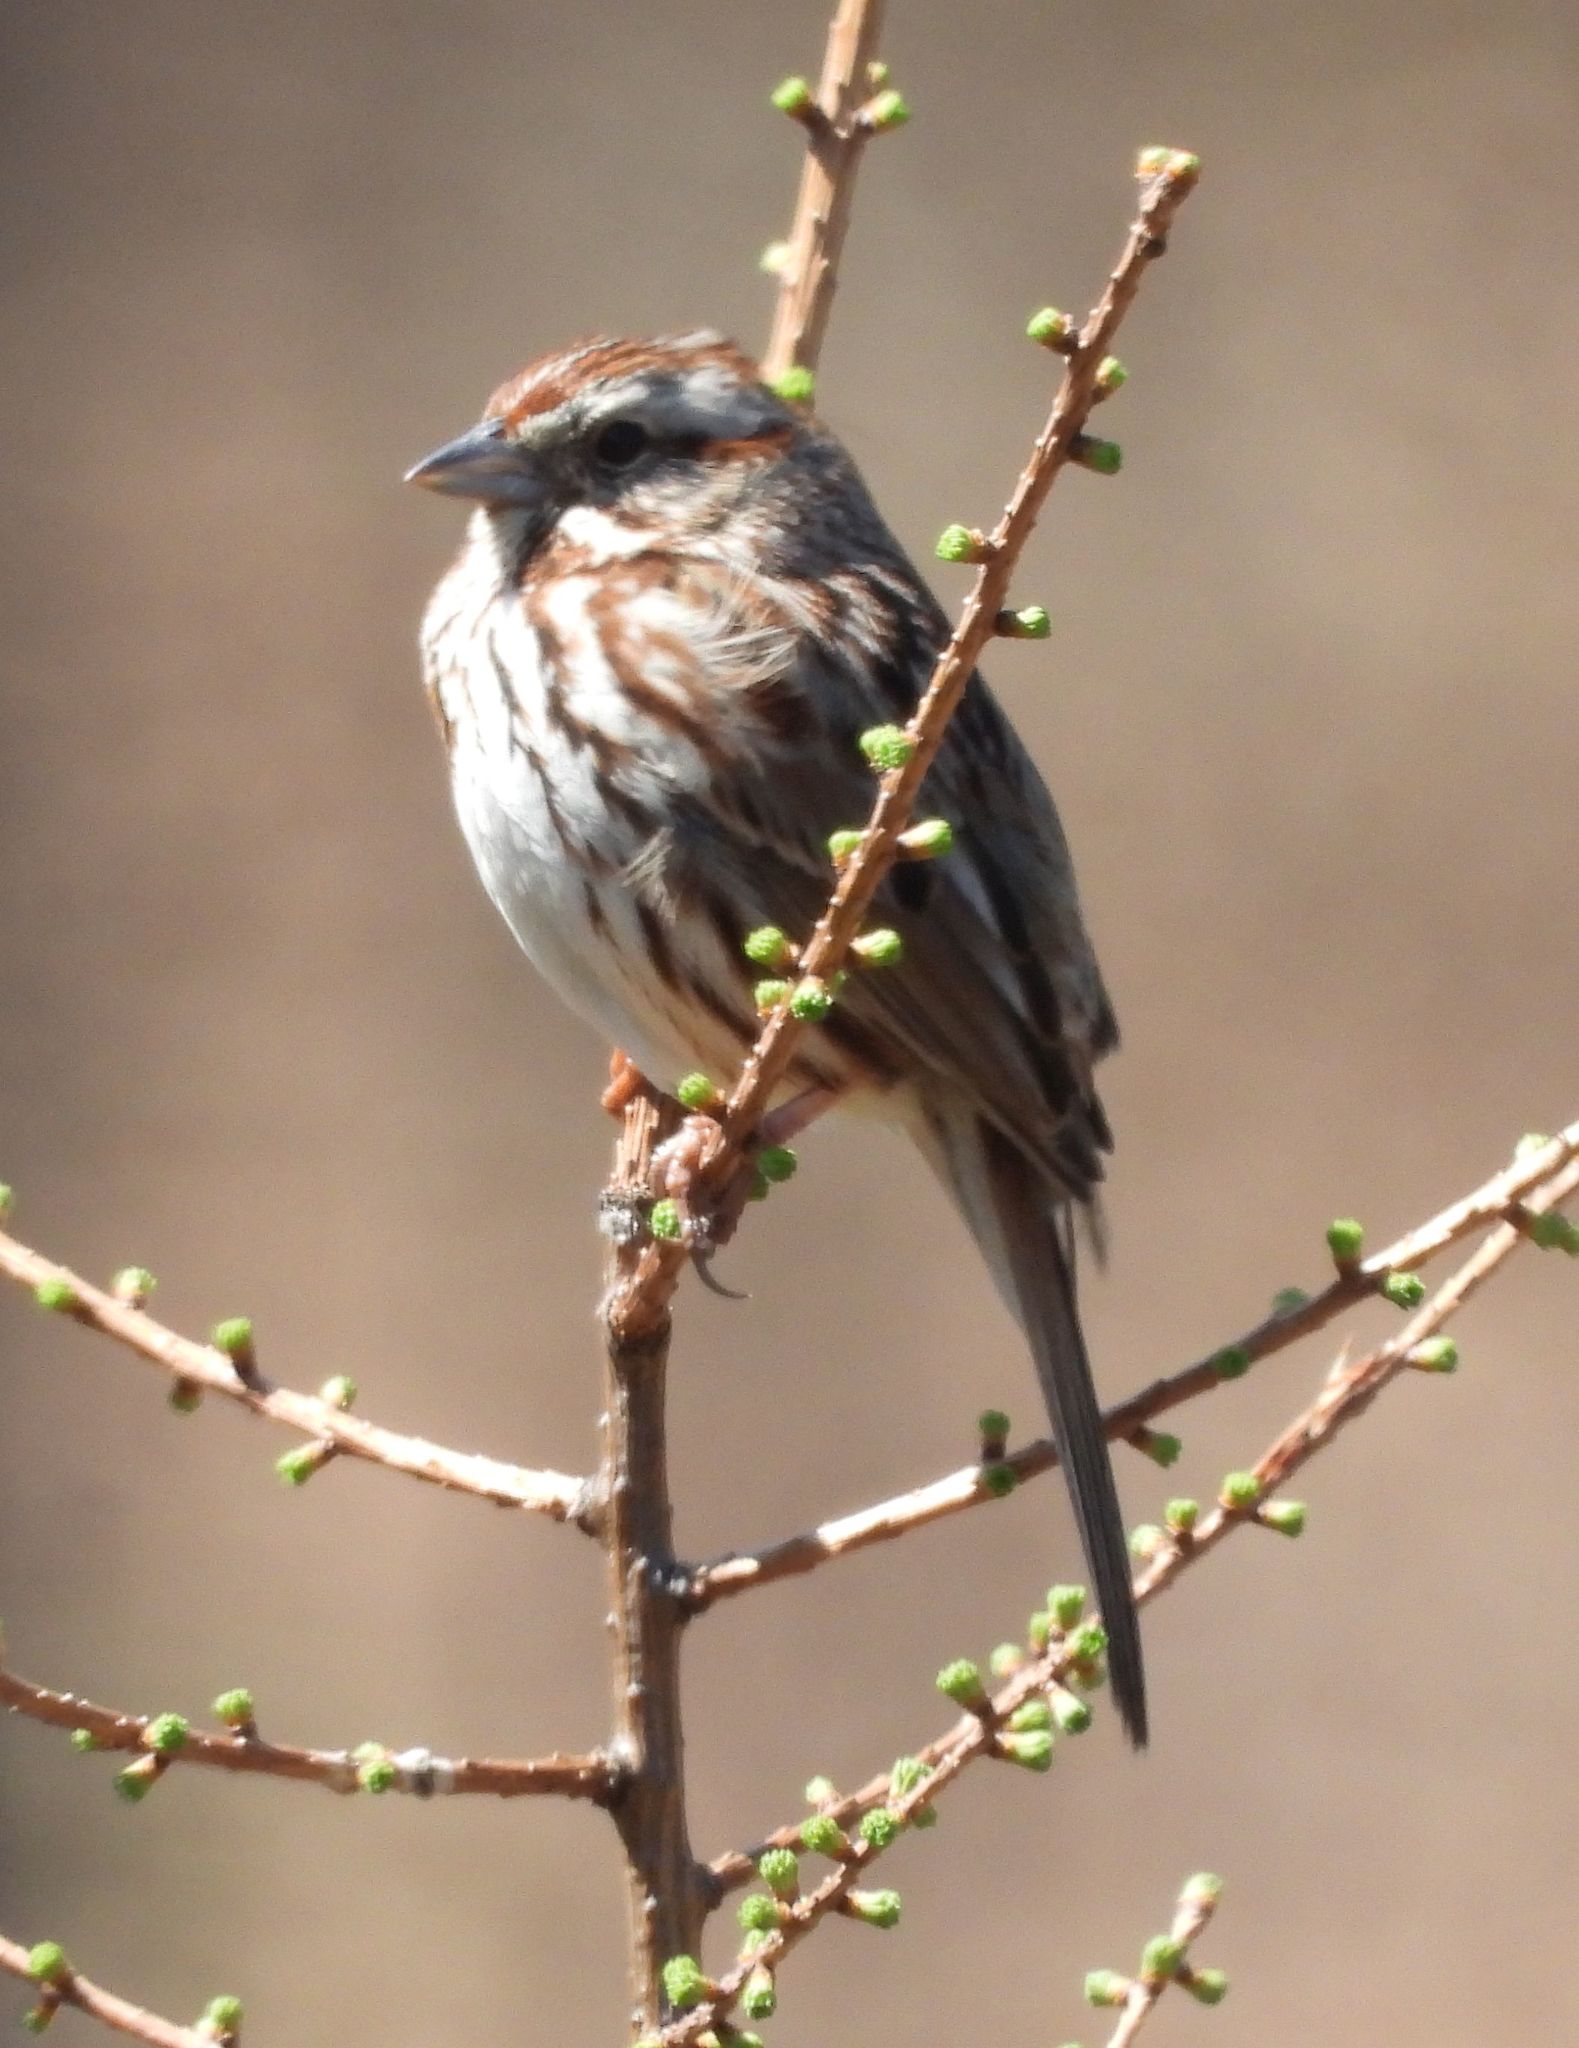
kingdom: Animalia
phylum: Chordata
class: Aves
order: Passeriformes
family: Passerellidae
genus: Melospiza
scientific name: Melospiza melodia
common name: Song sparrow
